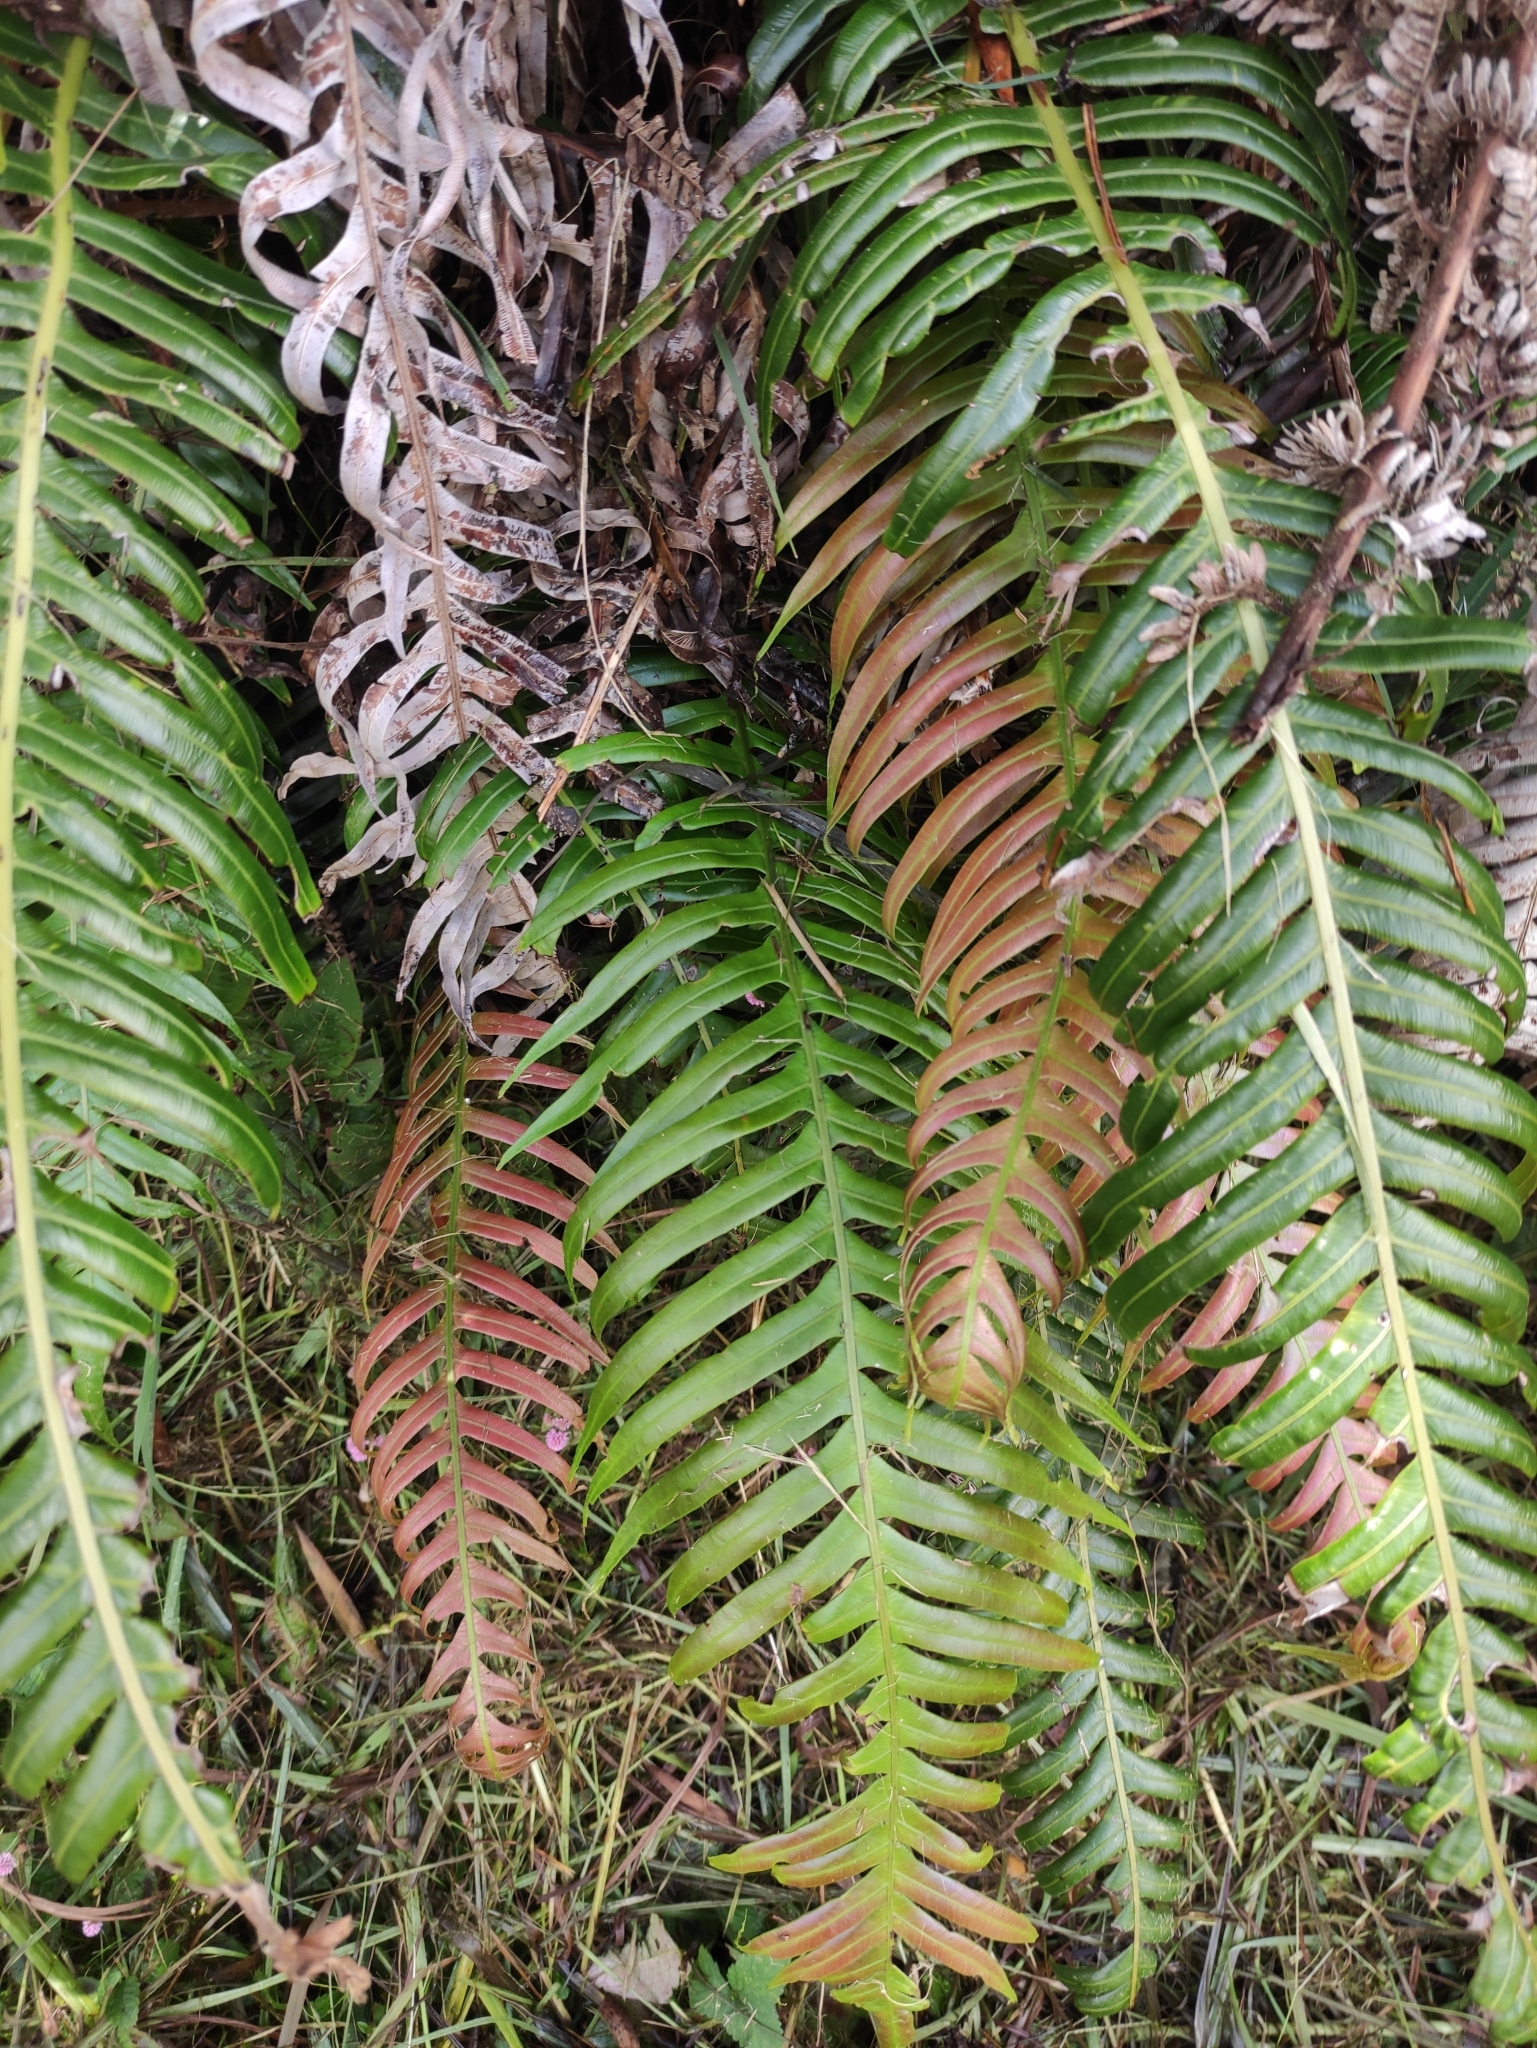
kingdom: Plantae
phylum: Tracheophyta
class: Polypodiopsida
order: Polypodiales
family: Blechnaceae
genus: Lomaridium
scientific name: Lomaridium attenuatum
